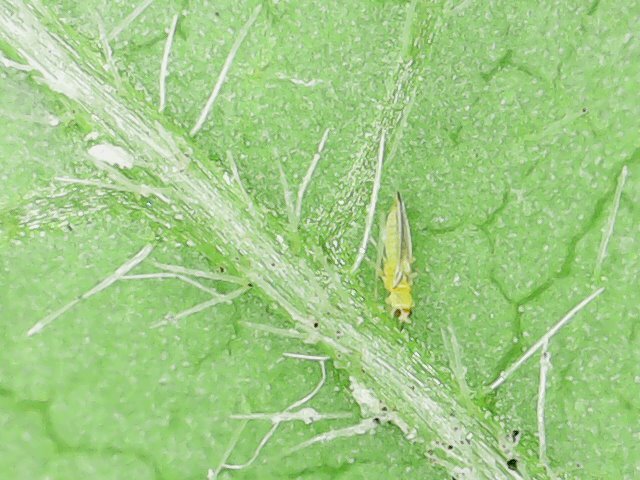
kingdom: Animalia
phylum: Arthropoda
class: Insecta
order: Thysanoptera
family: Thripidae
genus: Scirtothrips
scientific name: Scirtothrips dorsalis
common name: Thrips
